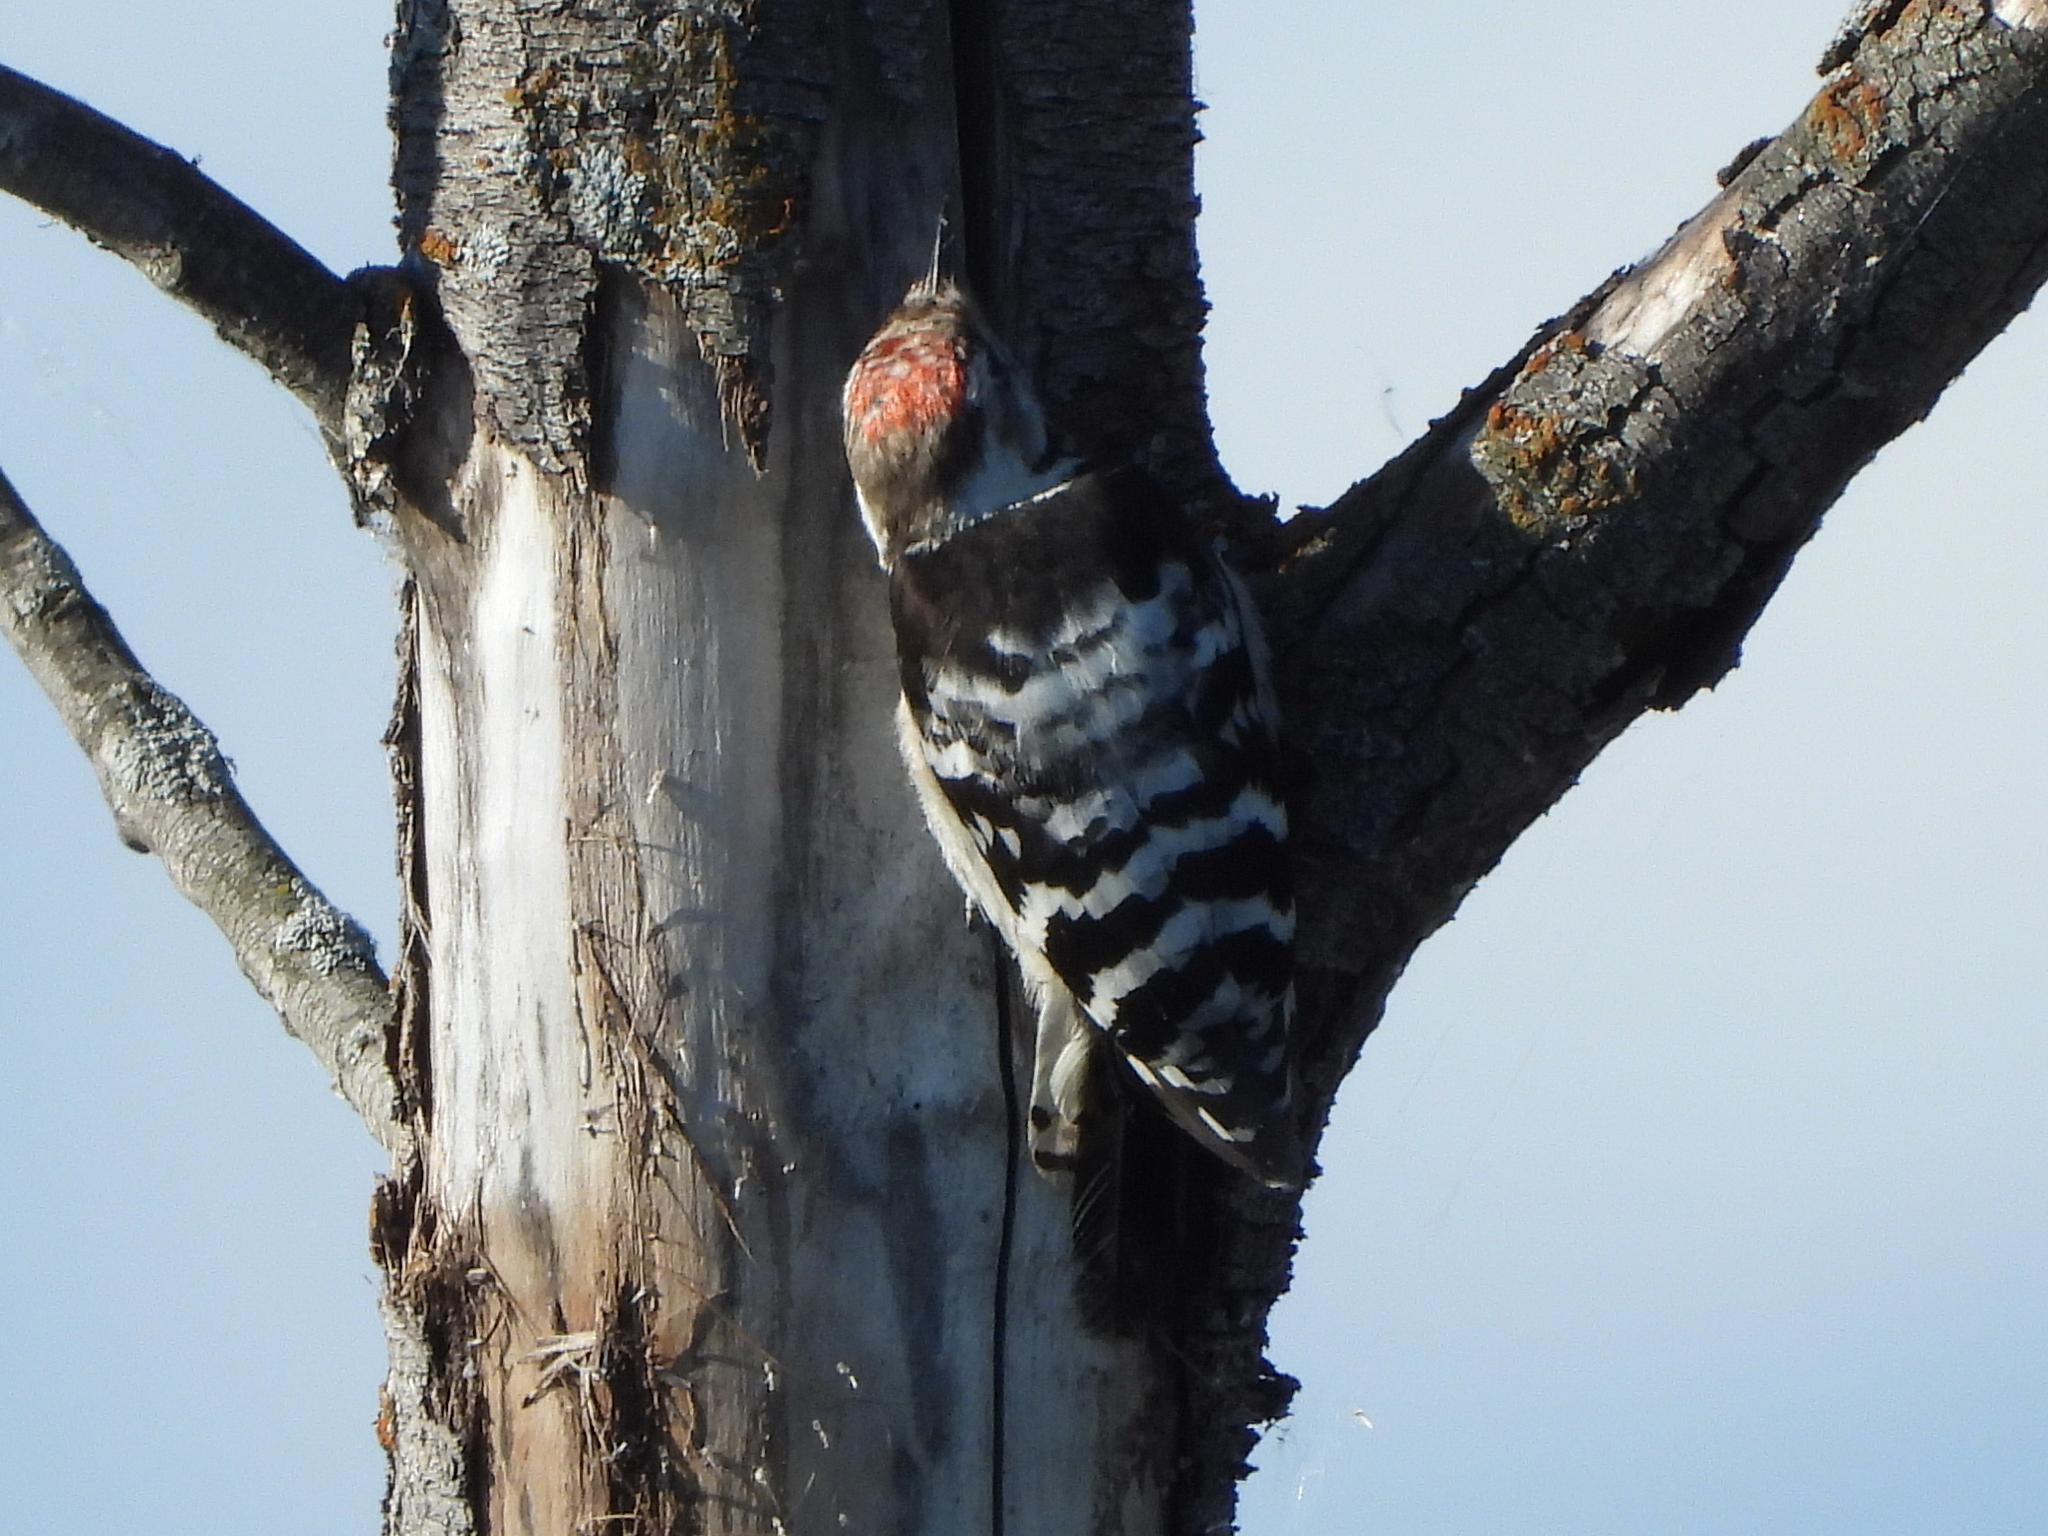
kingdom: Animalia
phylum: Chordata
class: Aves
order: Piciformes
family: Picidae
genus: Dryobates
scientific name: Dryobates minor
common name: Lesser spotted woodpecker
